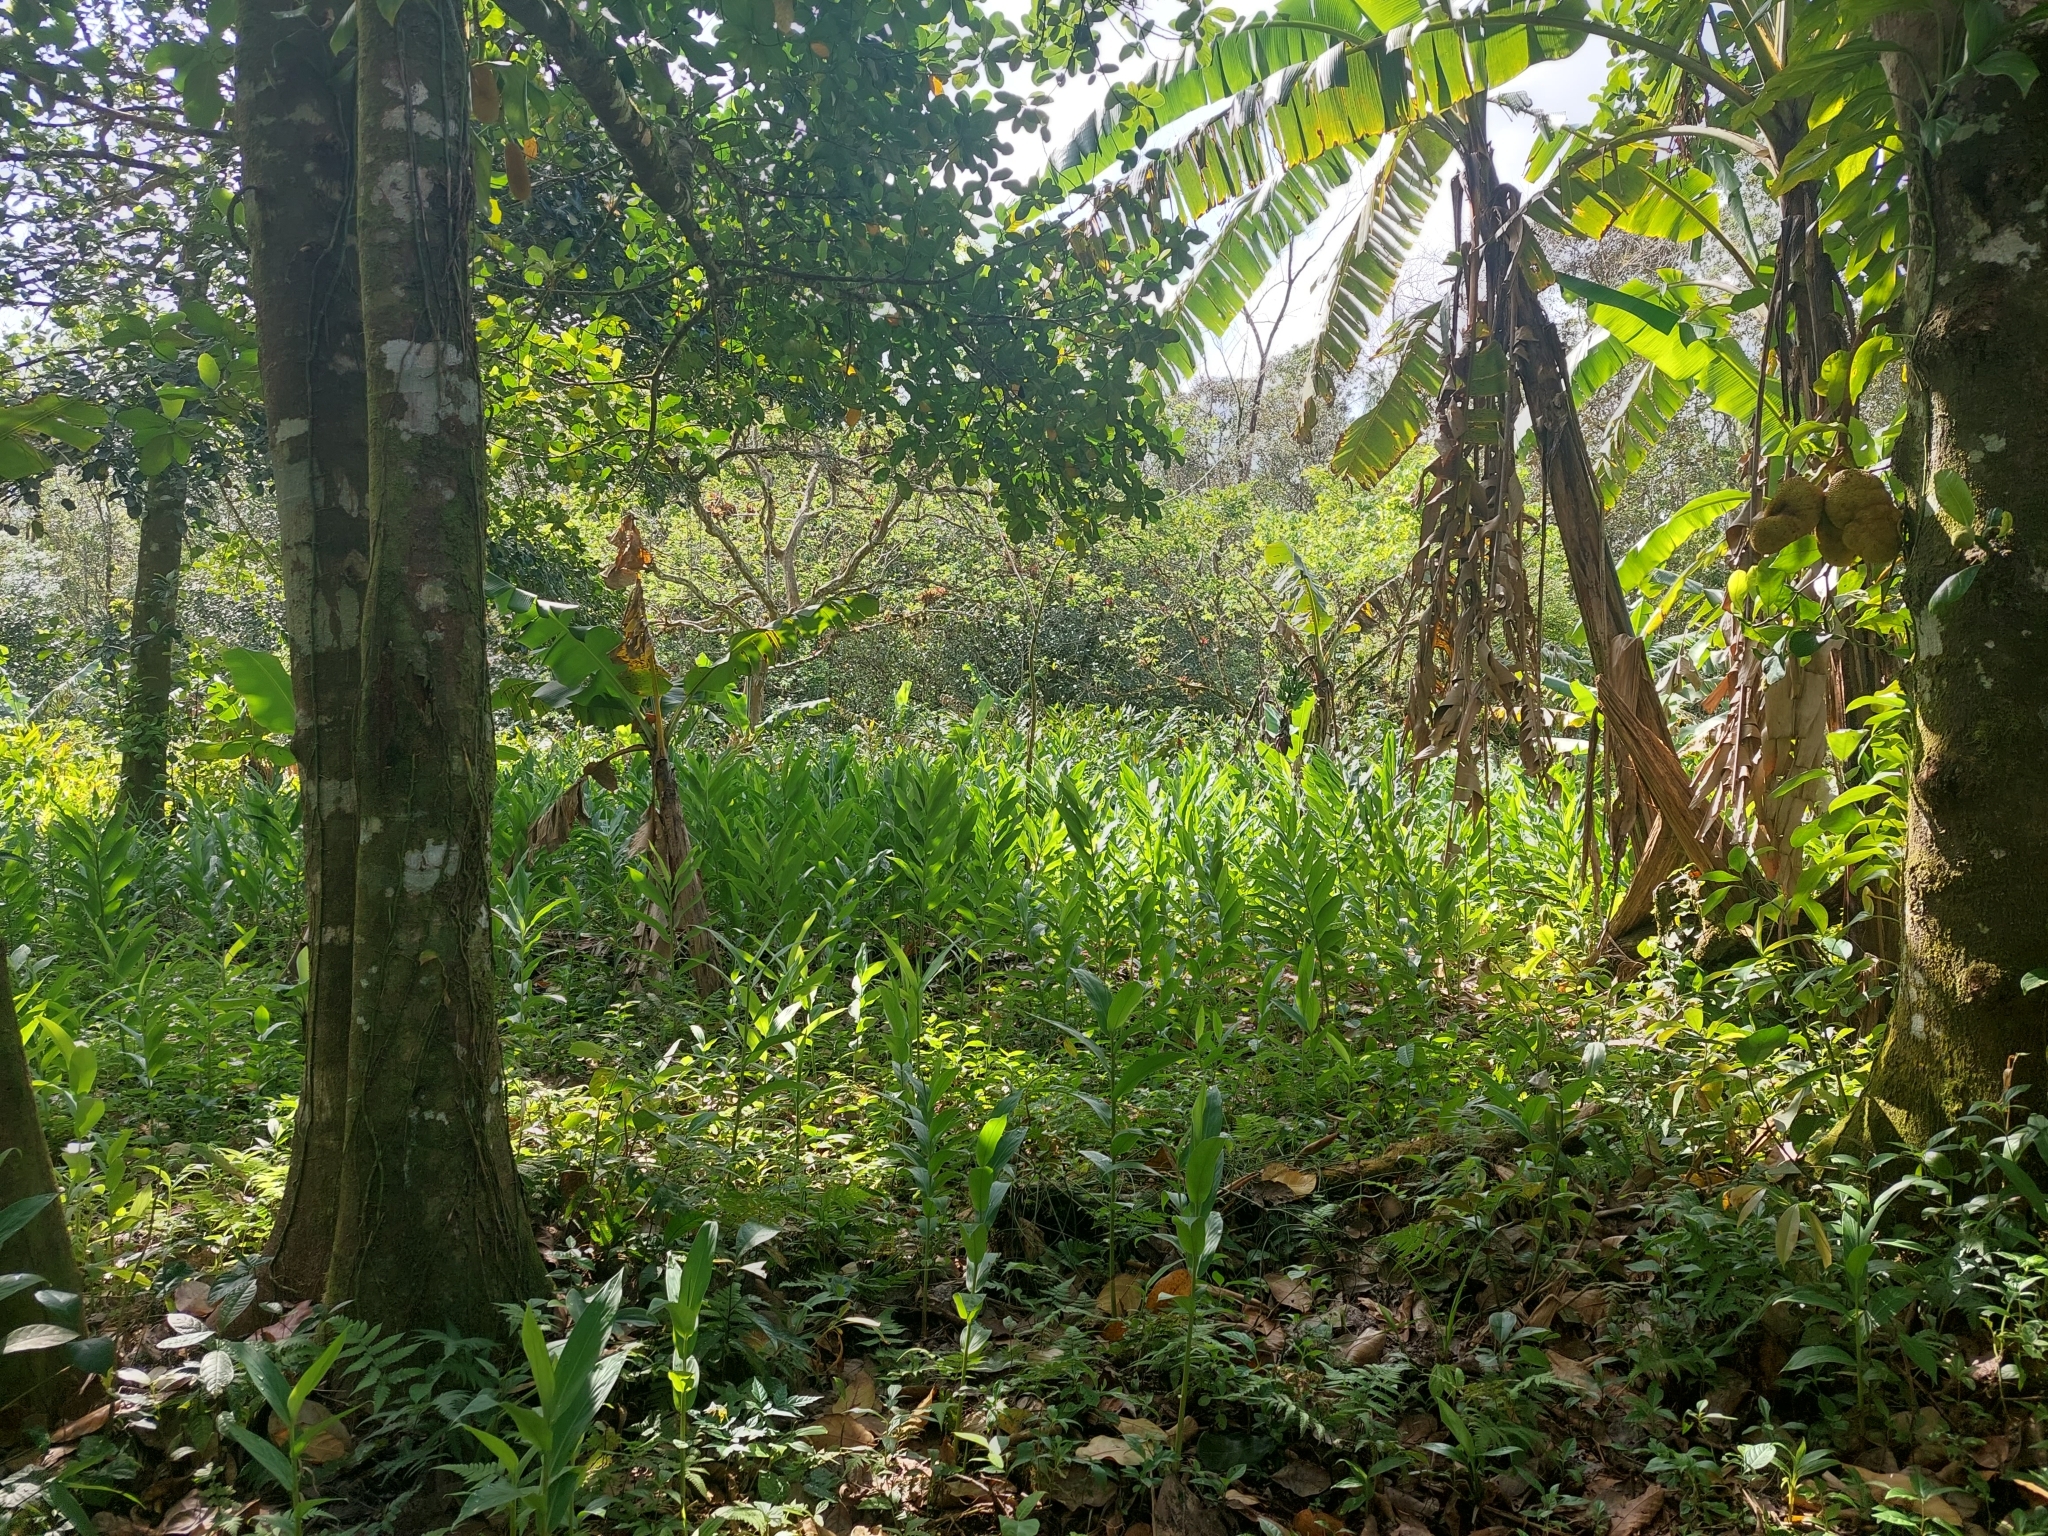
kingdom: Plantae
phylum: Tracheophyta
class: Liliopsida
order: Zingiberales
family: Zingiberaceae
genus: Hedychium
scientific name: Hedychium coronarium
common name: White garland-lily
